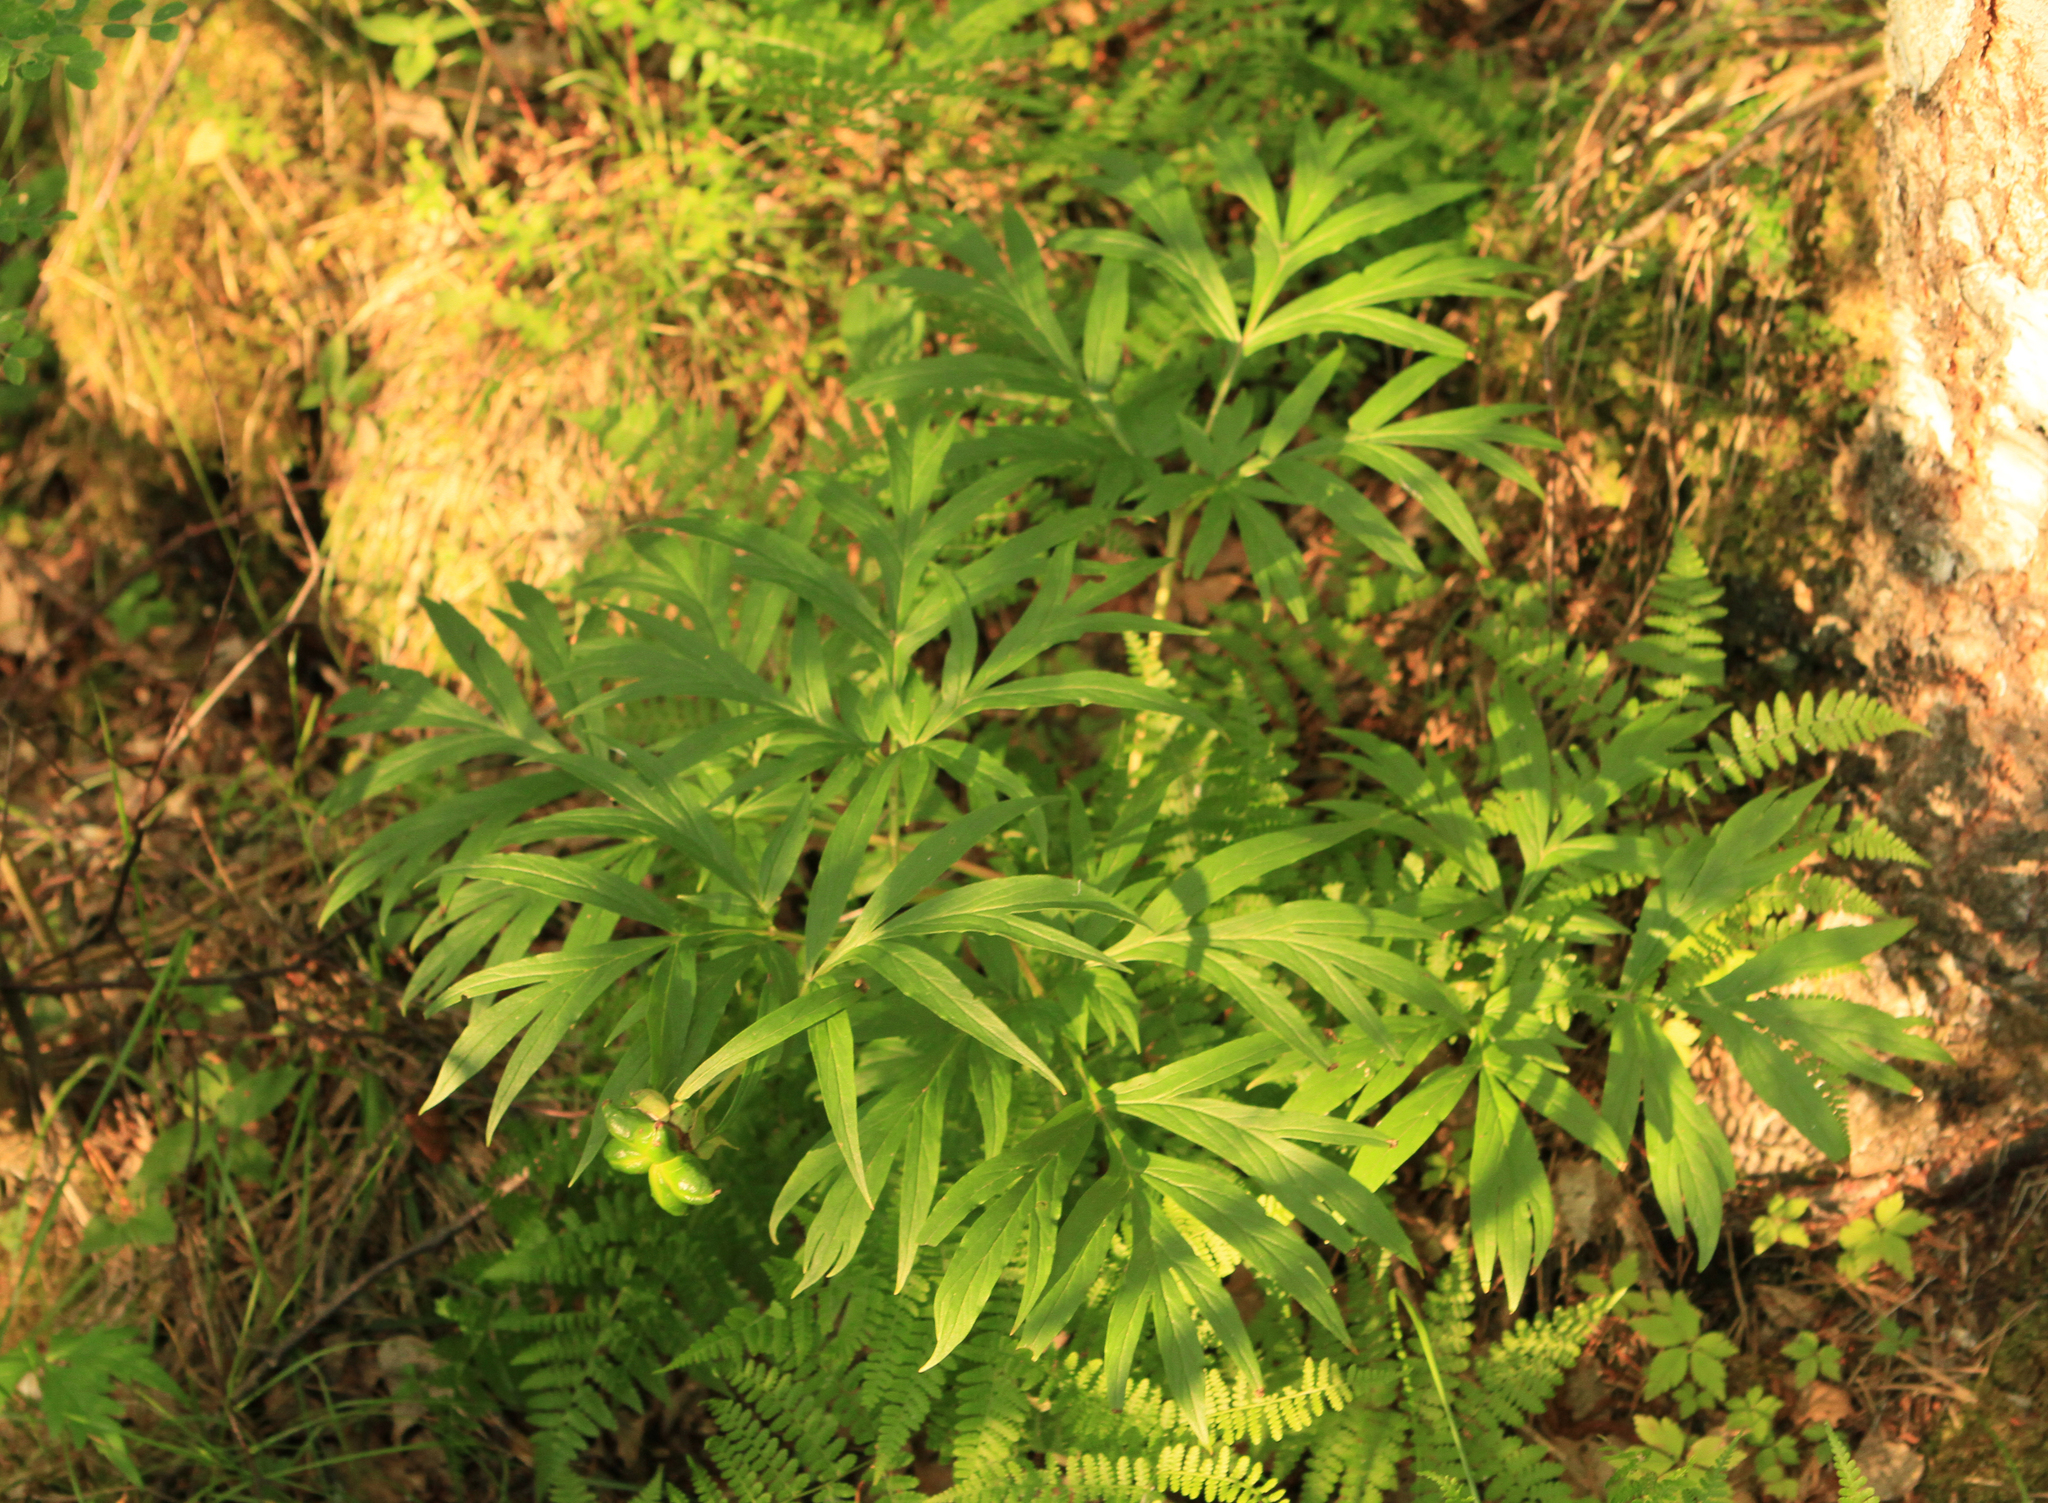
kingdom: Plantae
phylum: Tracheophyta
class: Magnoliopsida
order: Saxifragales
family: Paeoniaceae
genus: Paeonia
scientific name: Paeonia anomala
